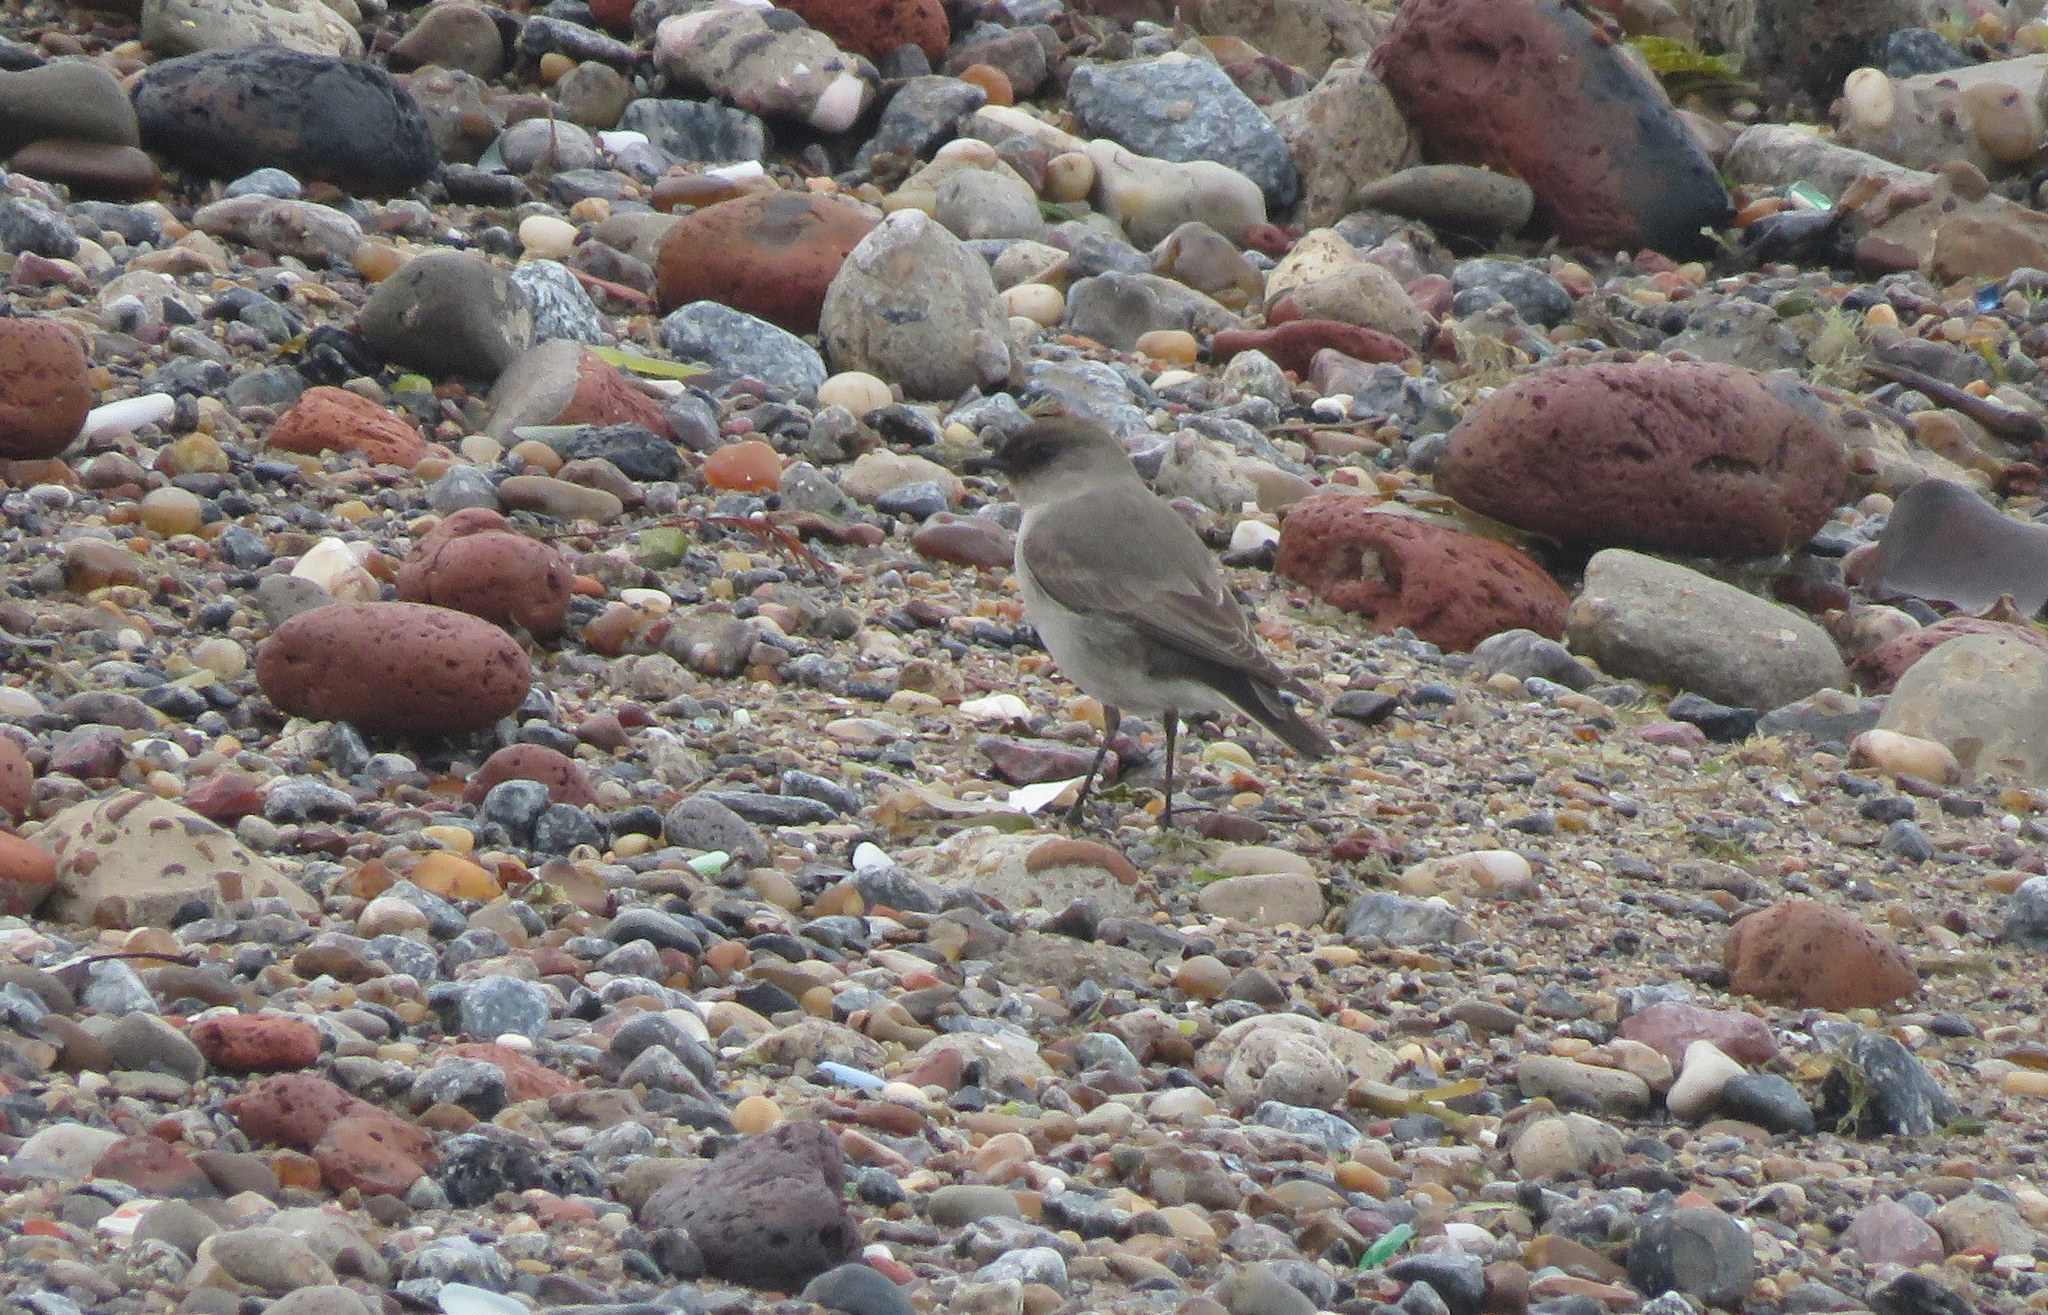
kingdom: Animalia
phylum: Chordata
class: Aves
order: Passeriformes
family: Tyrannidae
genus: Muscisaxicola
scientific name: Muscisaxicola maclovianus
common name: Dark-faced ground tyrant
